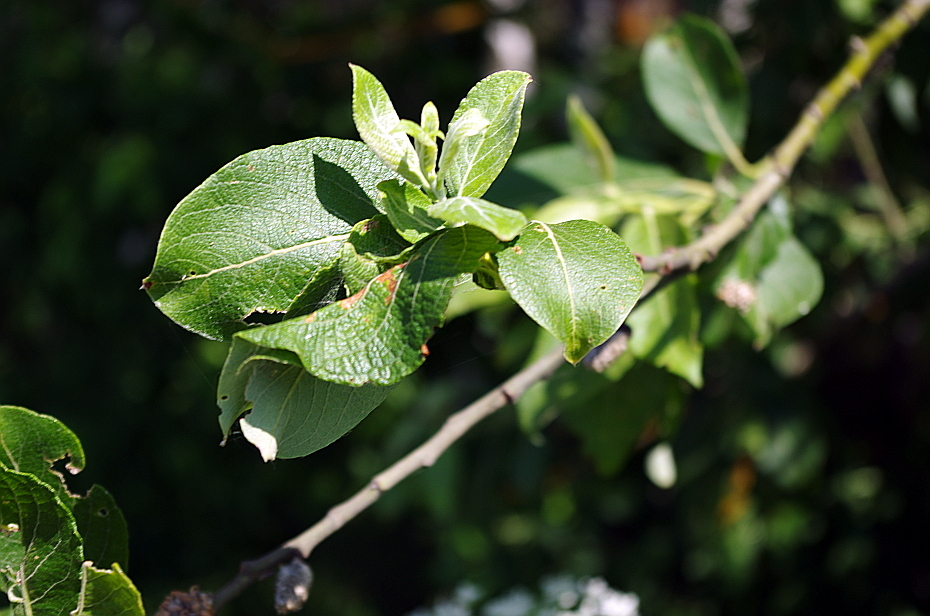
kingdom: Plantae
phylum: Tracheophyta
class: Magnoliopsida
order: Malpighiales
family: Salicaceae
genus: Salix
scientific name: Salix caprea
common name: Goat willow
